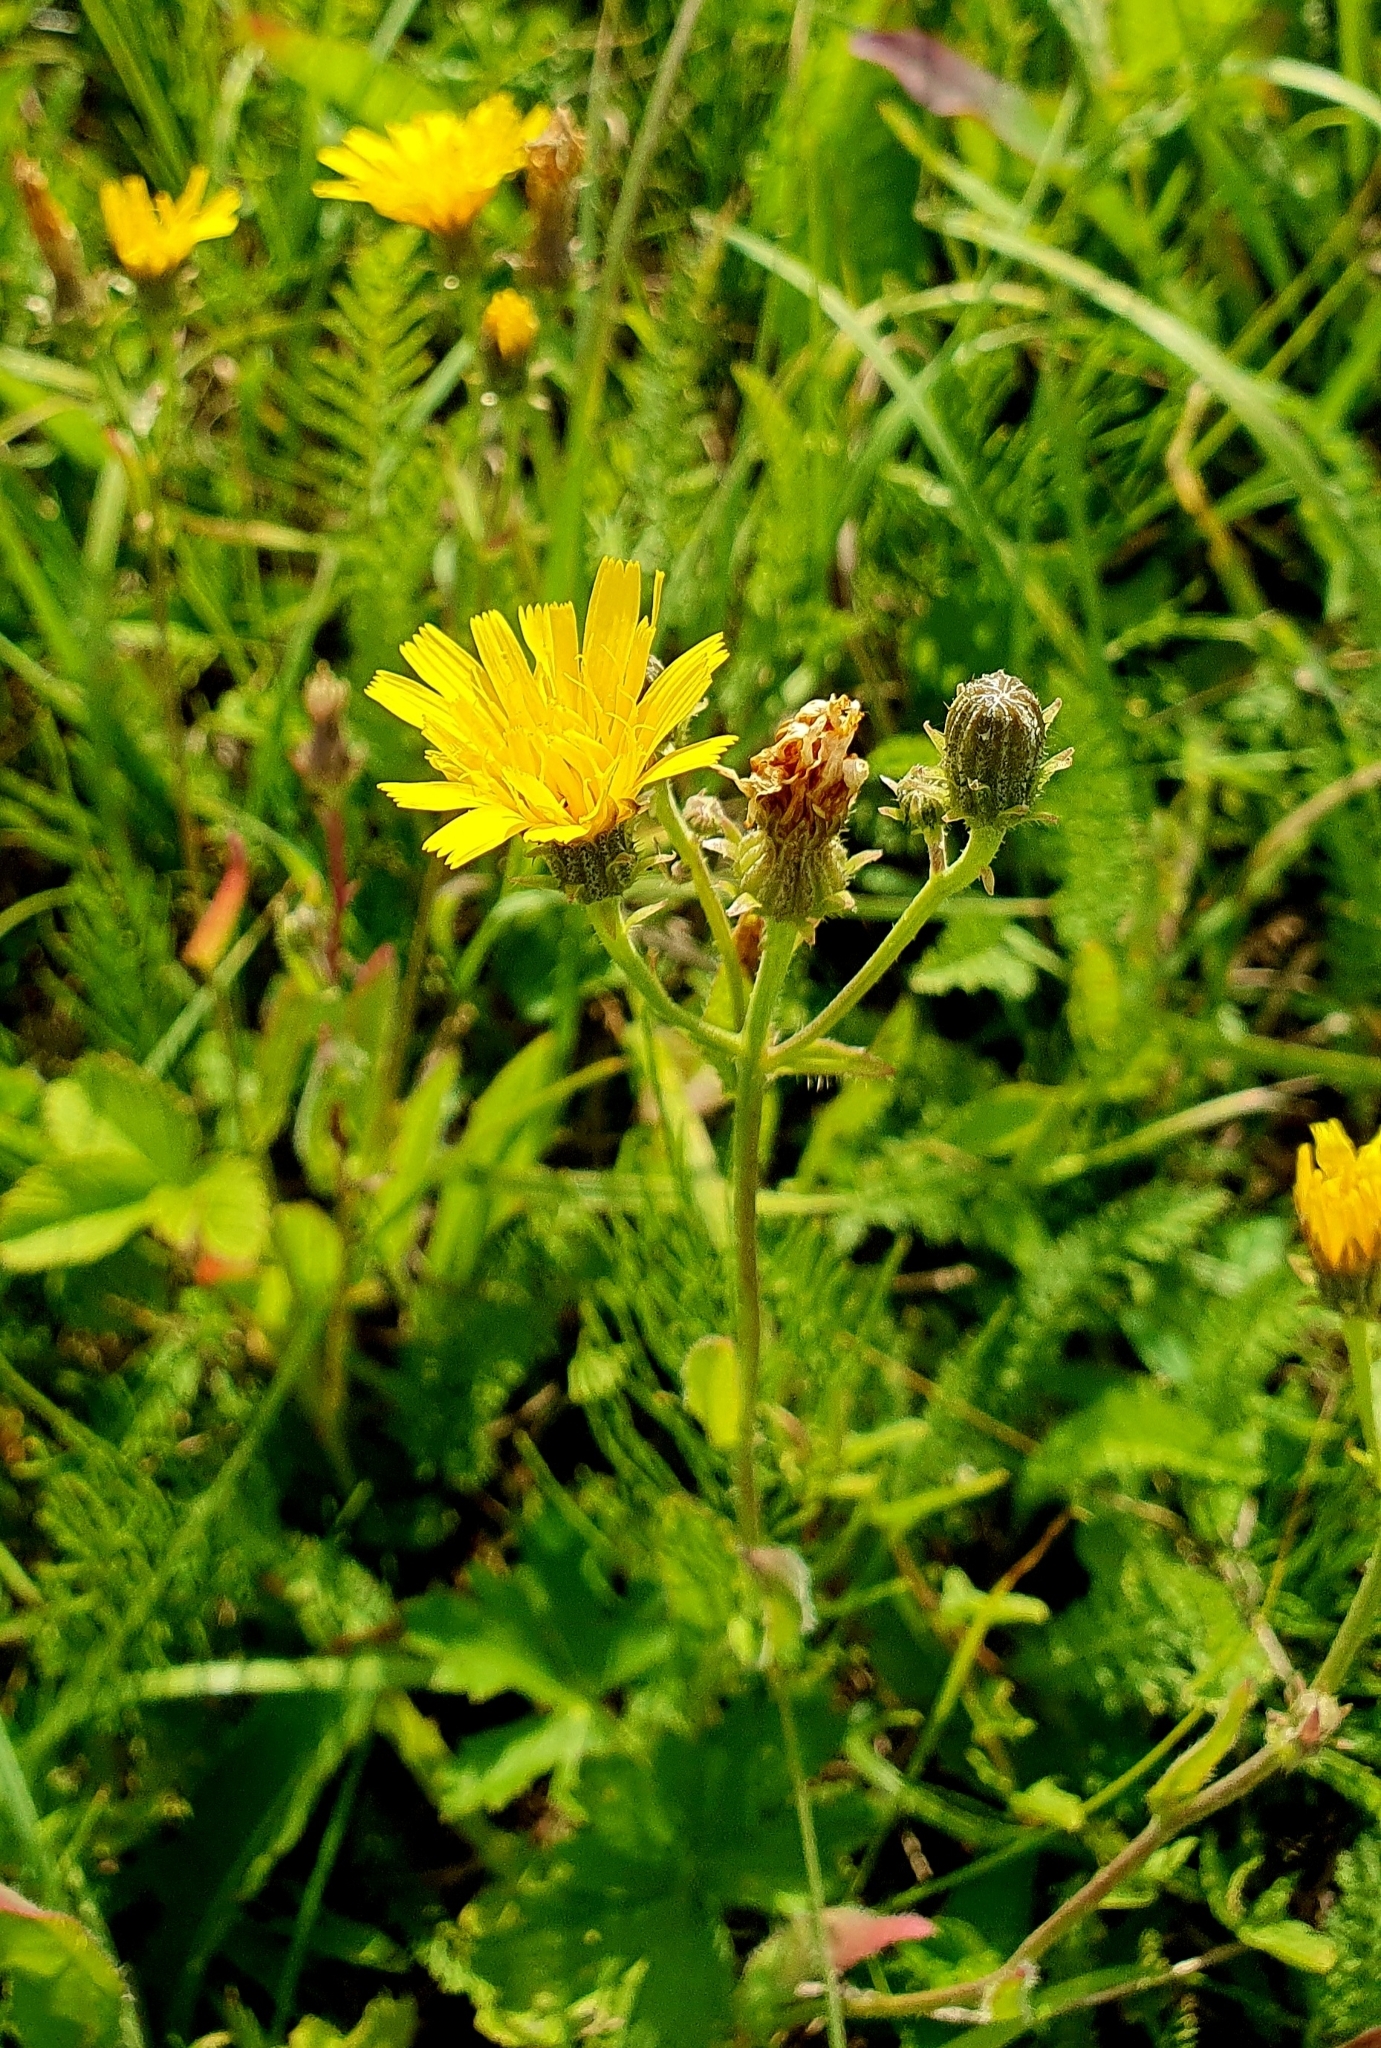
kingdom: Plantae
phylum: Tracheophyta
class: Magnoliopsida
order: Asterales
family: Asteraceae
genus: Picris
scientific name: Picris hieracioides
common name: Hawkweed oxtongue
